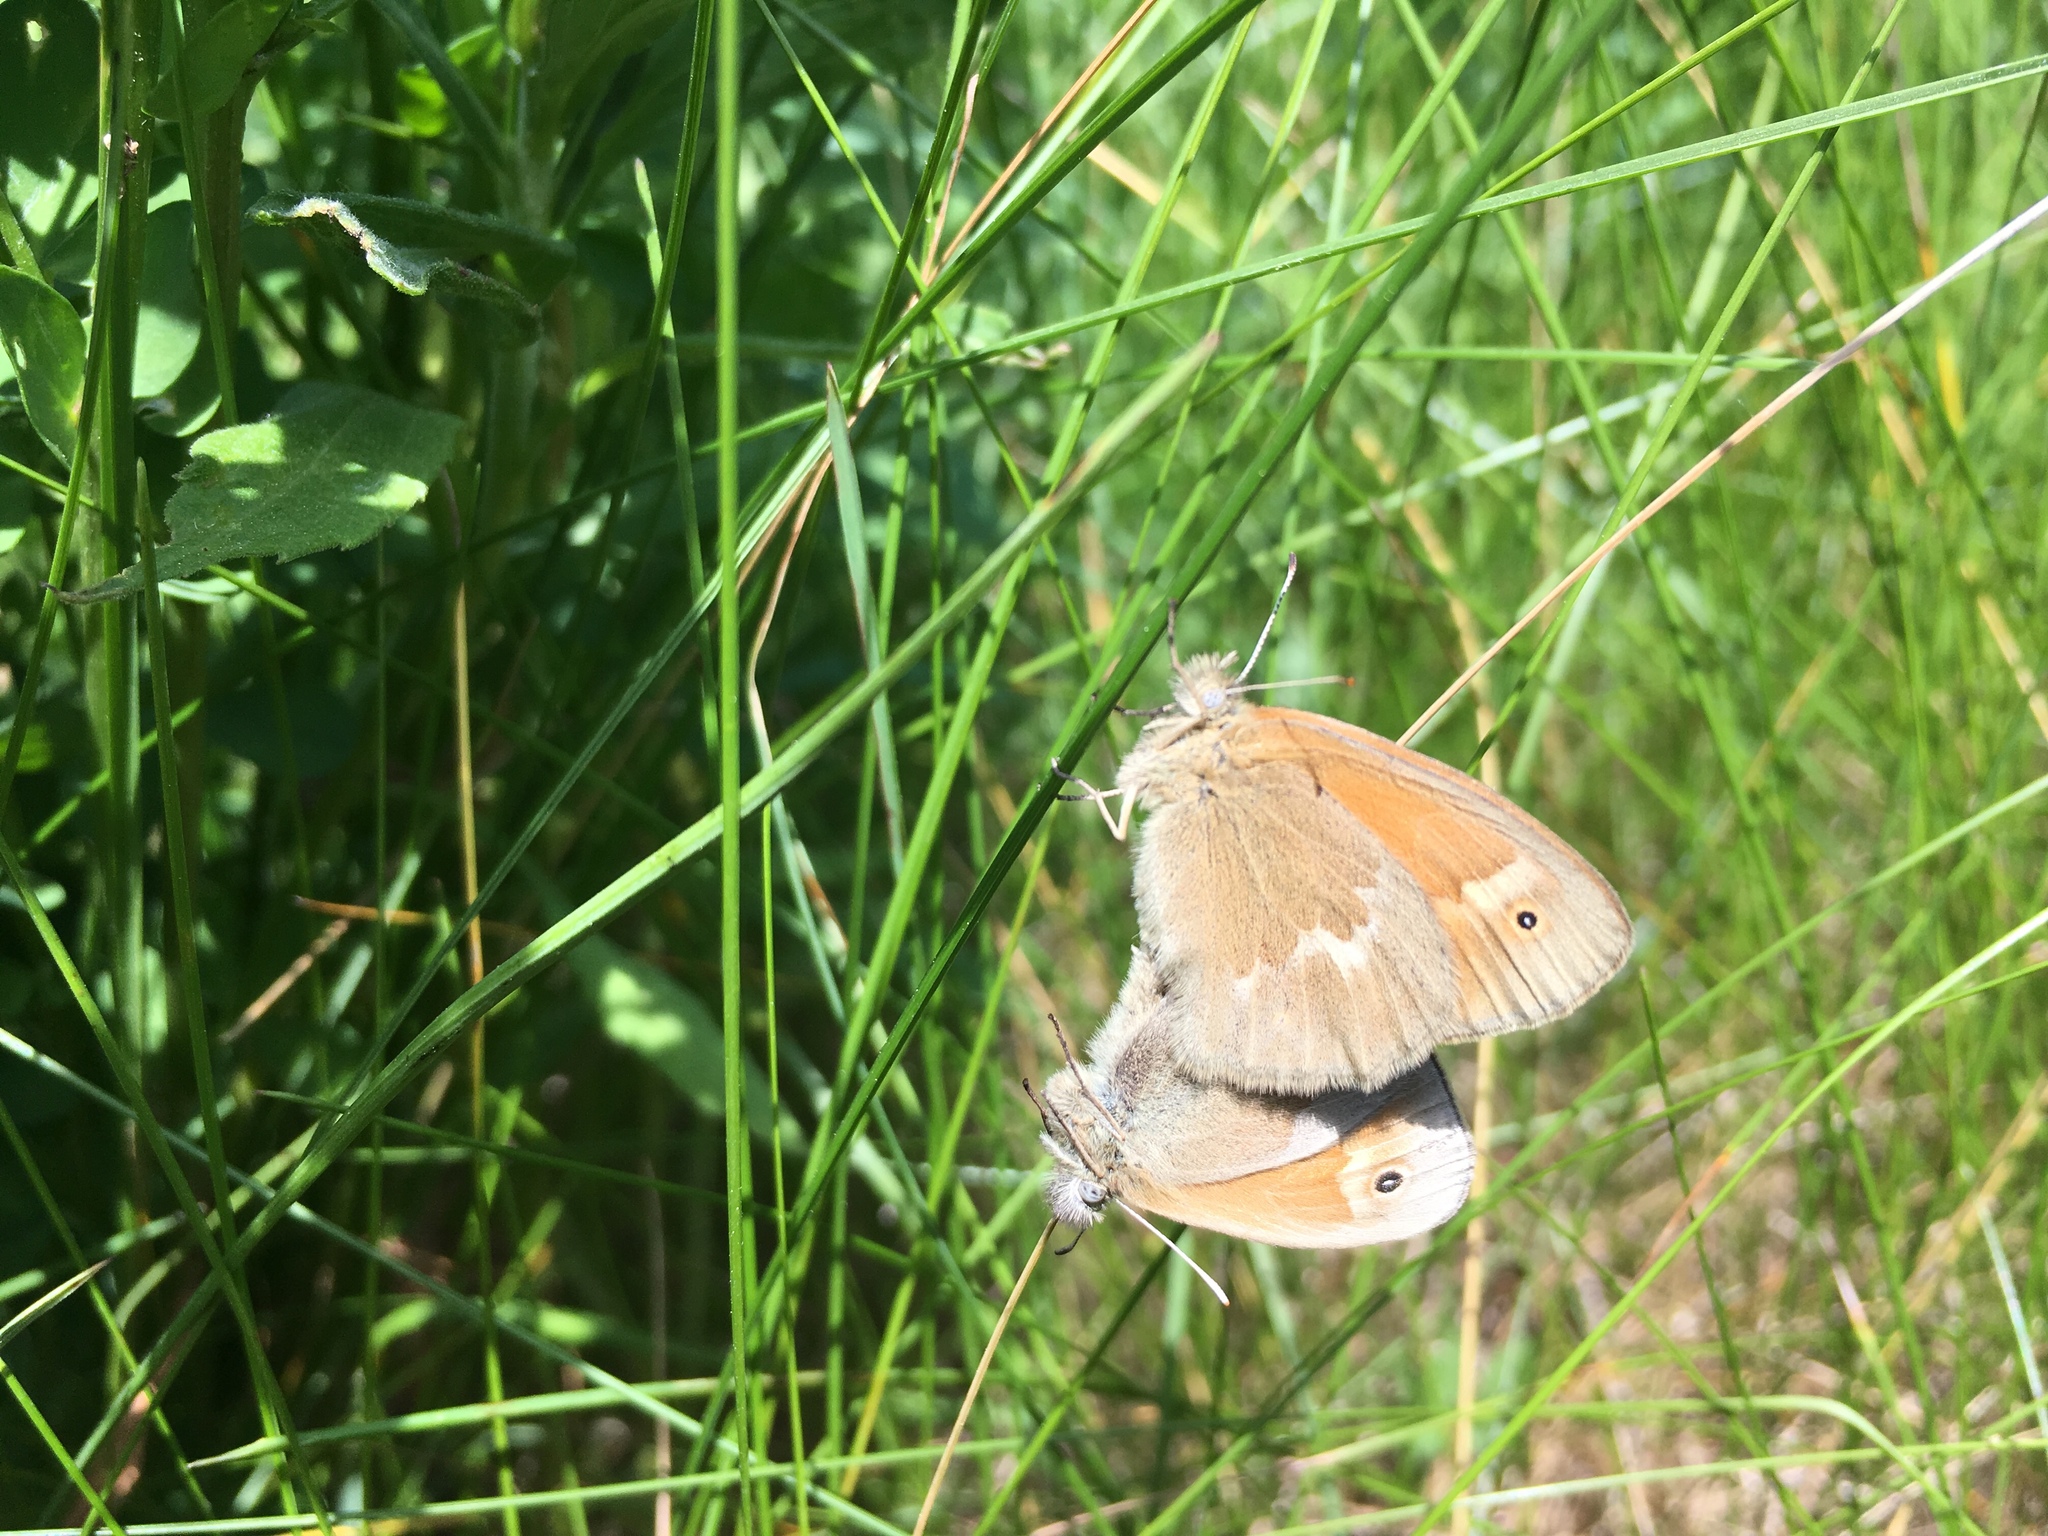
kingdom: Animalia
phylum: Arthropoda
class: Insecta
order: Lepidoptera
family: Nymphalidae
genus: Coenonympha
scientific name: Coenonympha california
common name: Common ringlet
